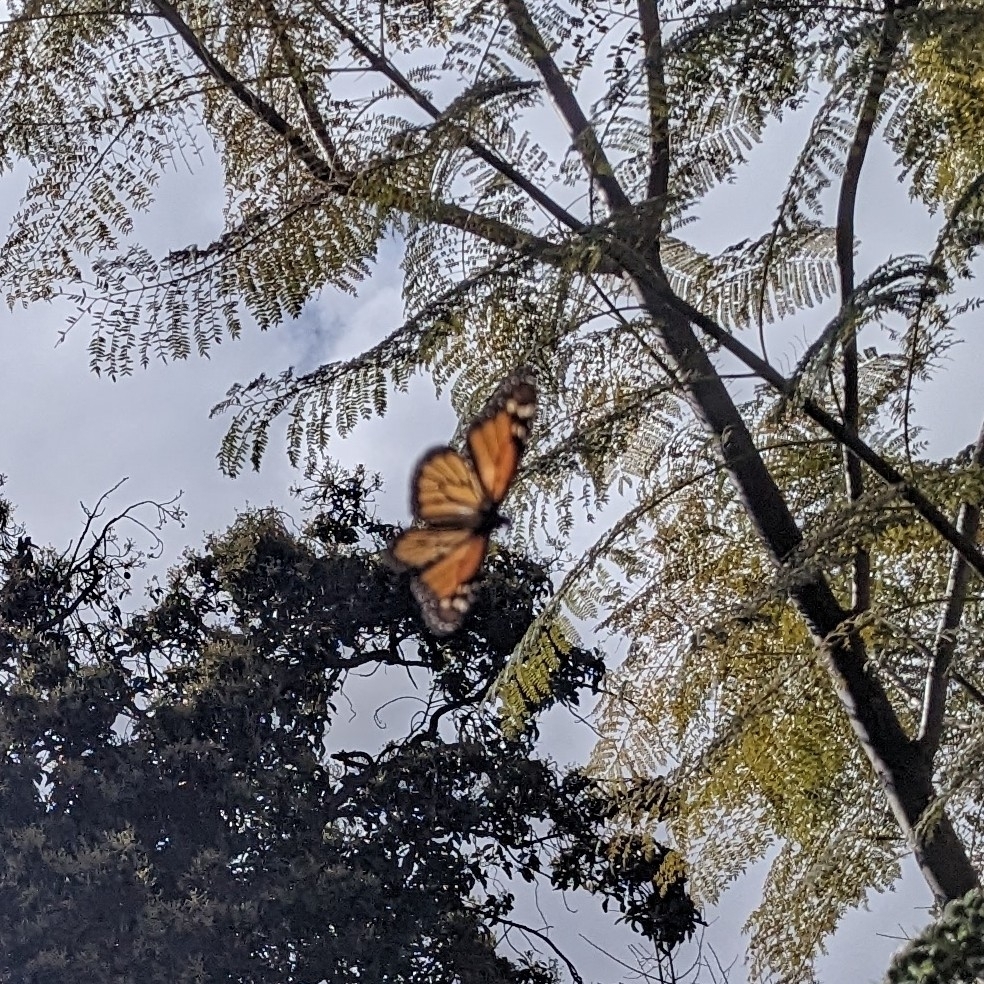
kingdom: Animalia
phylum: Arthropoda
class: Insecta
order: Lepidoptera
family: Nymphalidae
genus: Danaus
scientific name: Danaus plexippus
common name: Monarch
